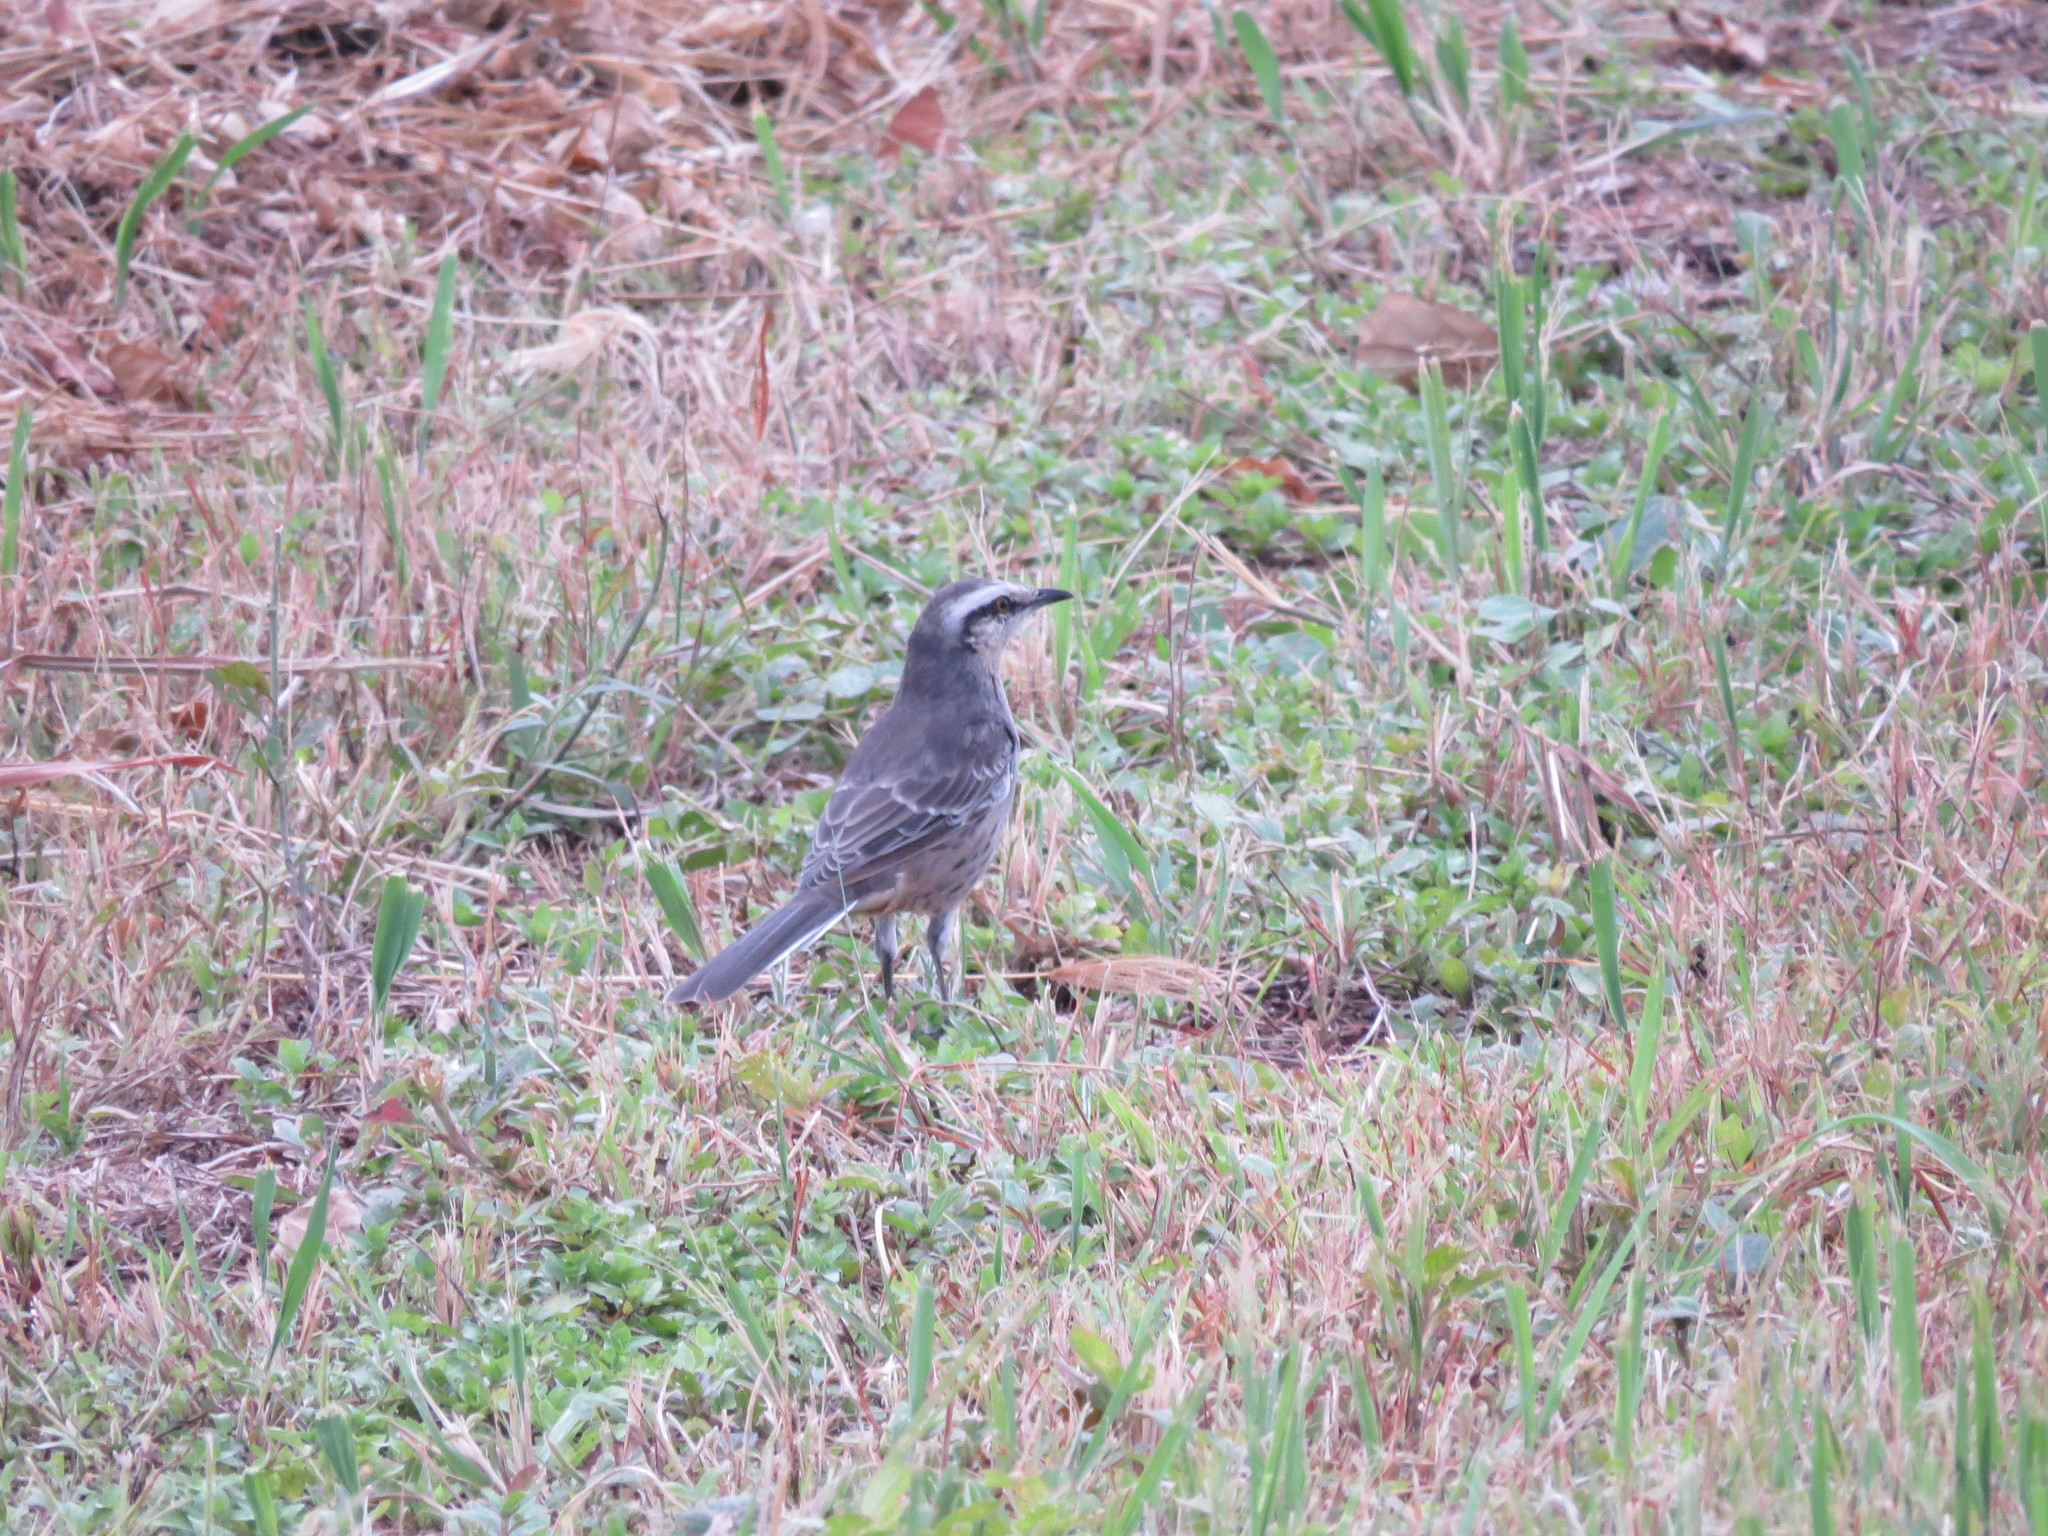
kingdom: Animalia
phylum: Chordata
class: Aves
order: Passeriformes
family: Mimidae
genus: Mimus
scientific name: Mimus saturninus
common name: Chalk-browed mockingbird
